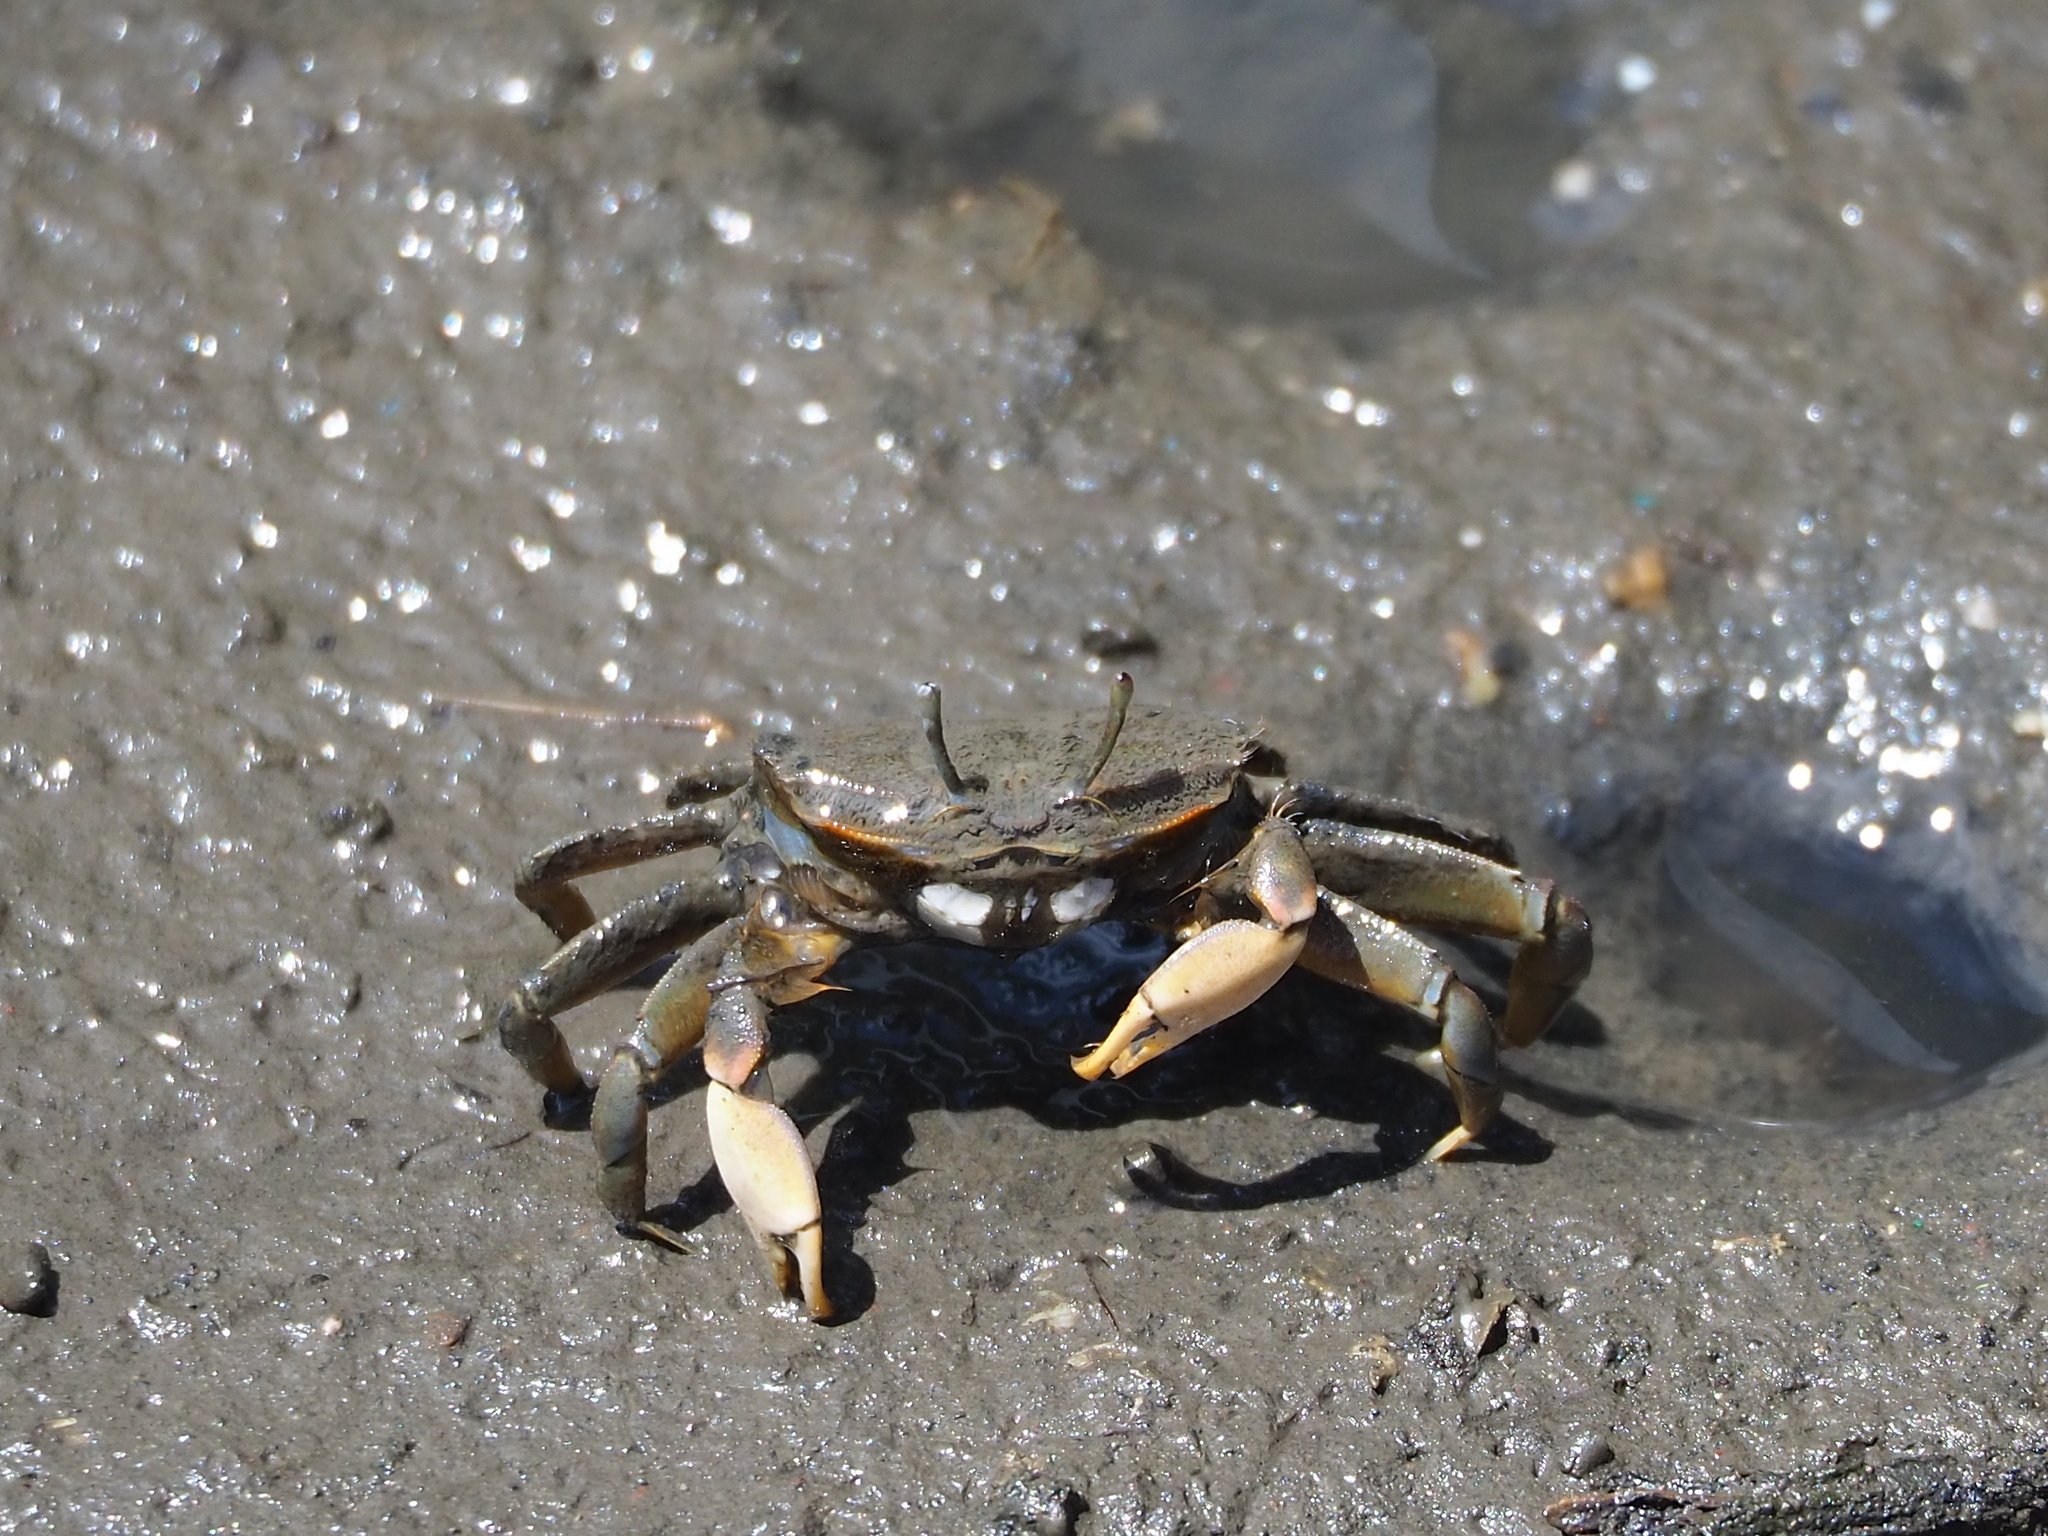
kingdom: Animalia
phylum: Arthropoda
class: Malacostraca
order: Decapoda
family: Macrophthalmidae
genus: Macrophthalmus
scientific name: Macrophthalmus banzai
